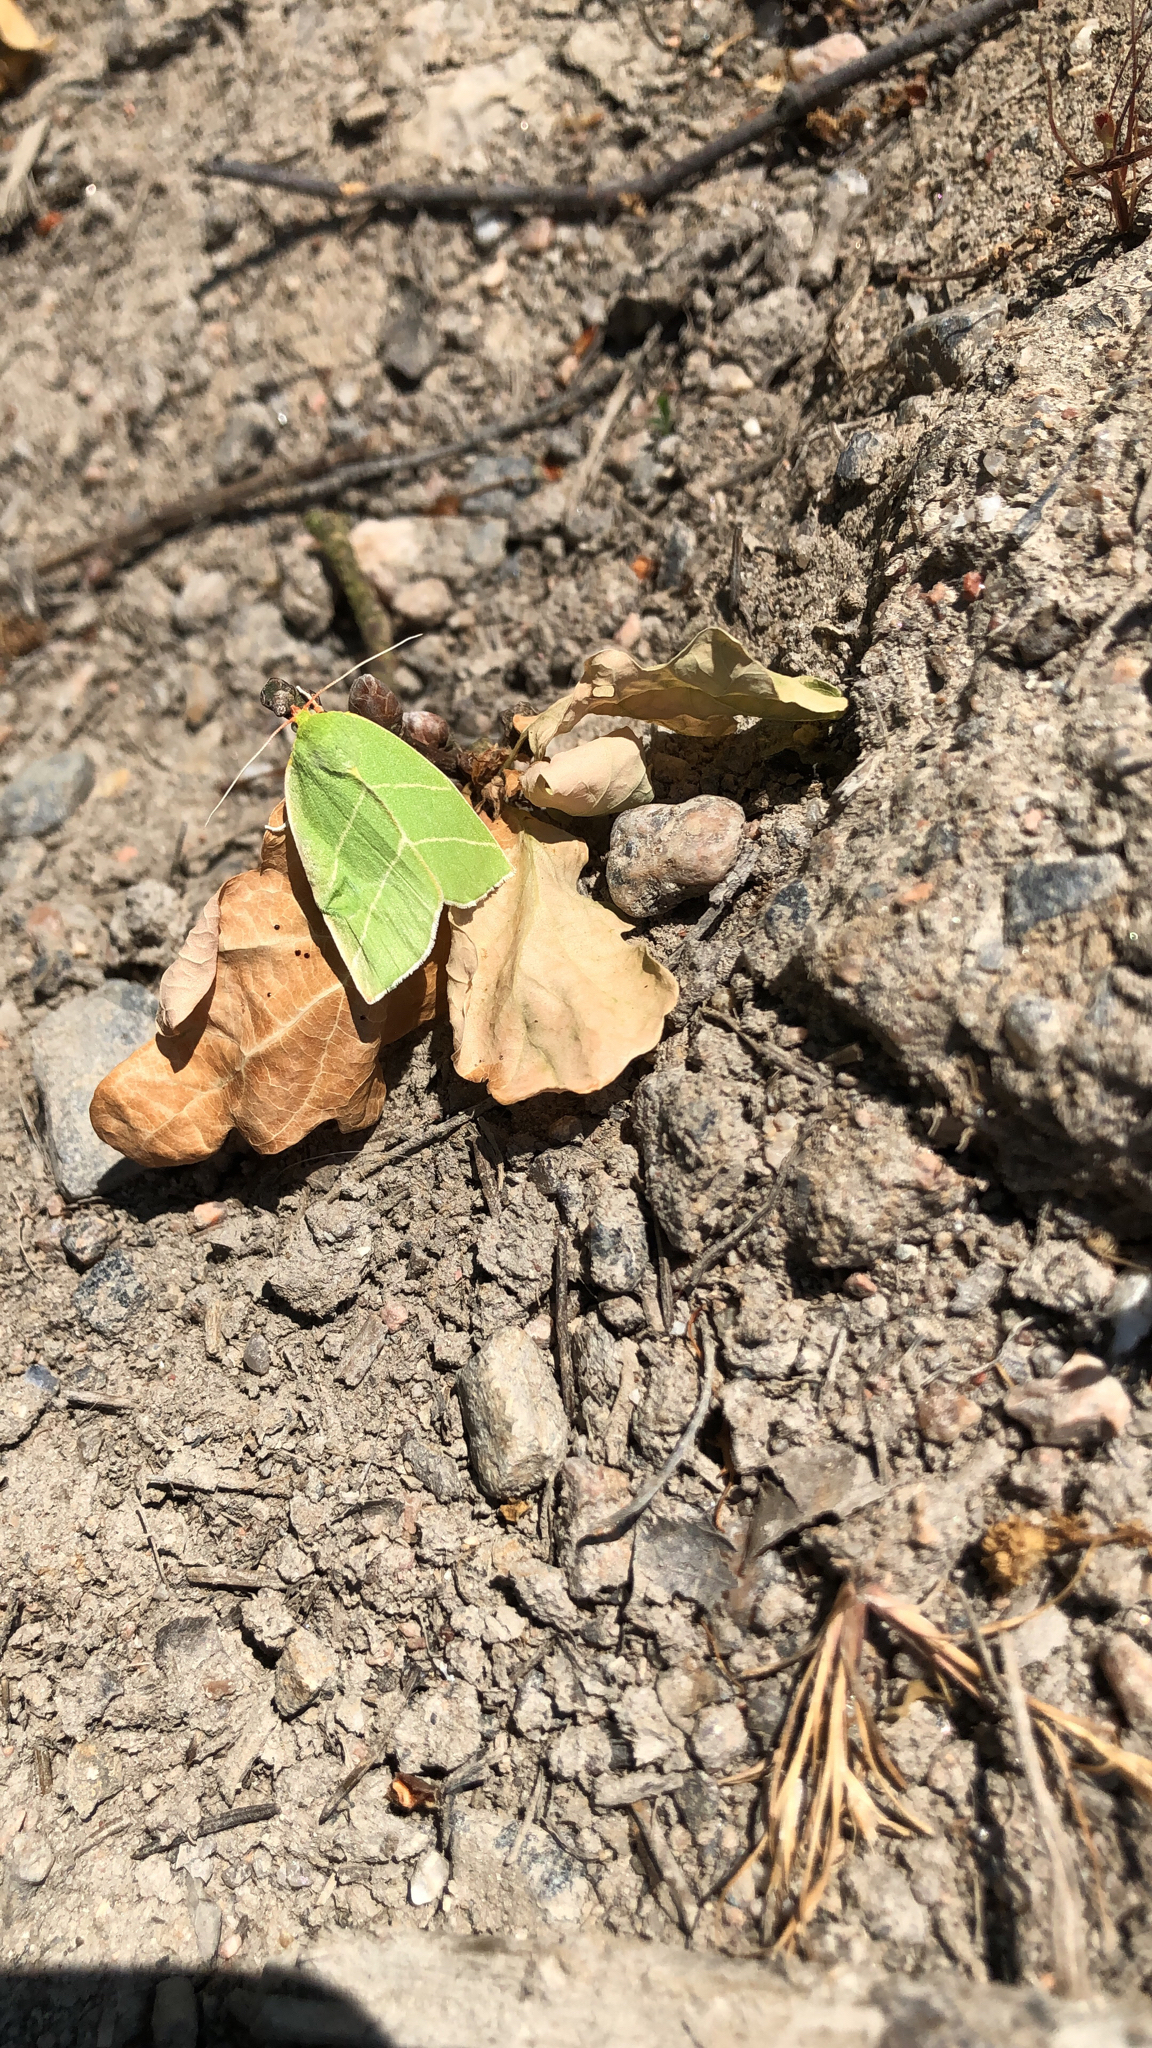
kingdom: Animalia
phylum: Arthropoda
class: Insecta
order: Lepidoptera
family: Nolidae
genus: Bena
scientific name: Bena bicolorana
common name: Scarce silver-lines
